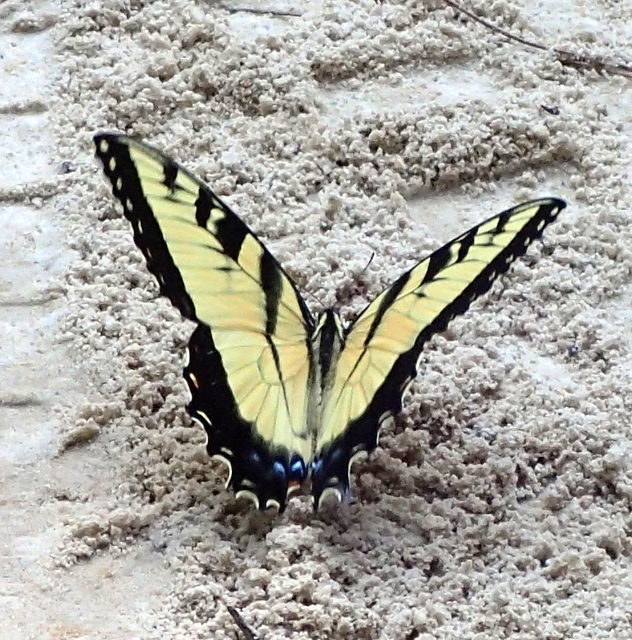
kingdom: Animalia
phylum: Arthropoda
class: Insecta
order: Lepidoptera
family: Papilionidae
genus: Papilio
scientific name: Papilio glaucus
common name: Tiger swallowtail
